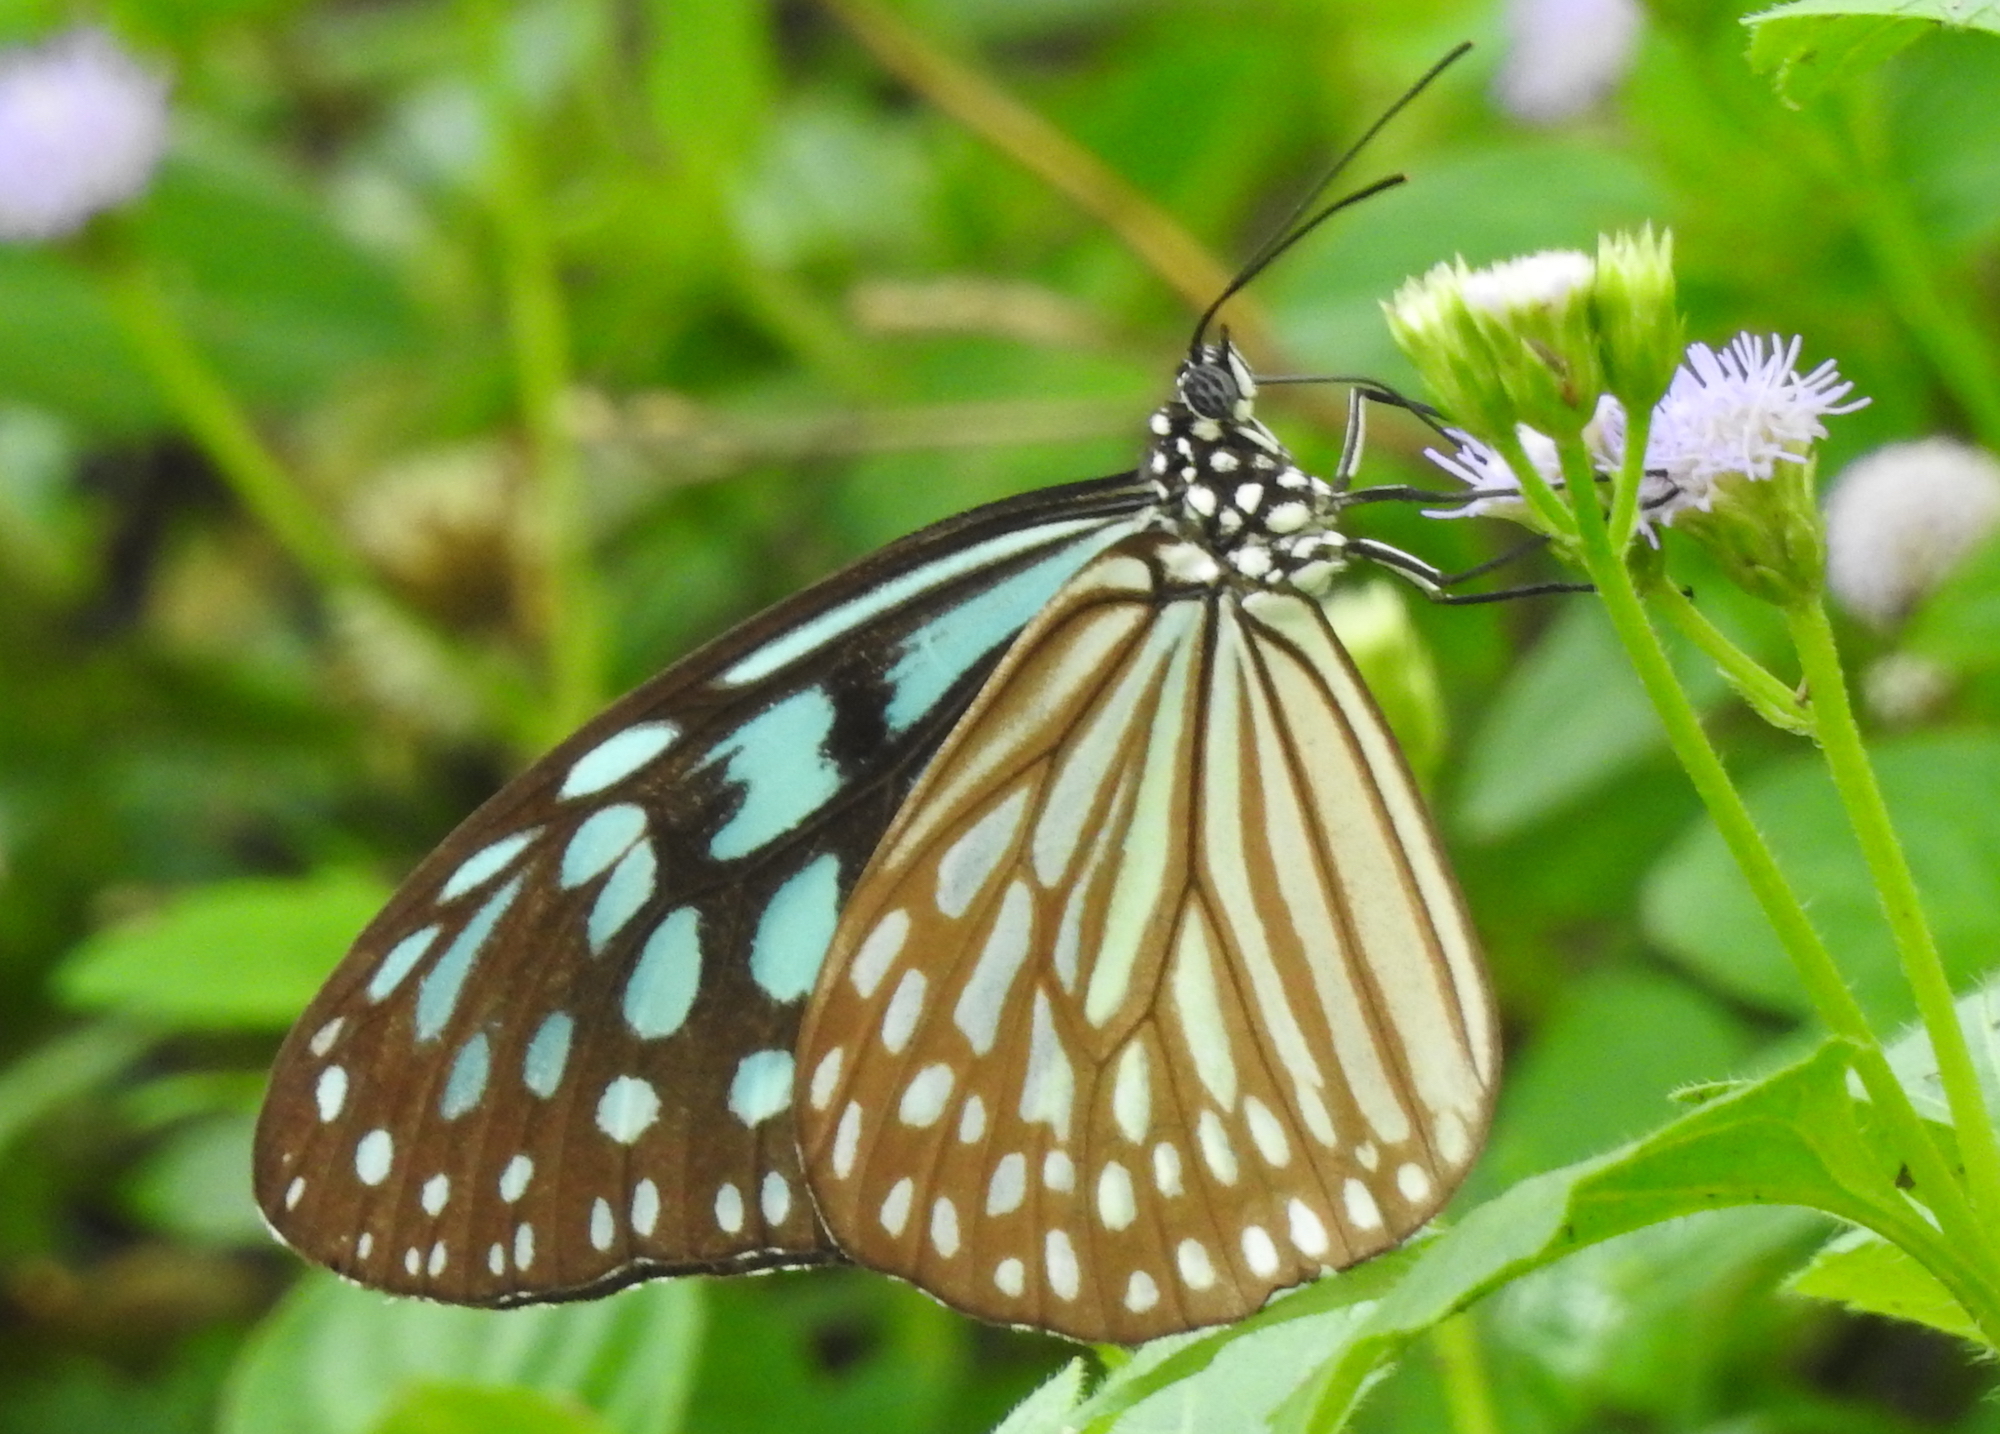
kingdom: Animalia
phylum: Arthropoda
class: Insecta
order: Lepidoptera
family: Nymphalidae
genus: Ideopsis
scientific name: Ideopsis similis
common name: Ceylon blue glassy tiger
